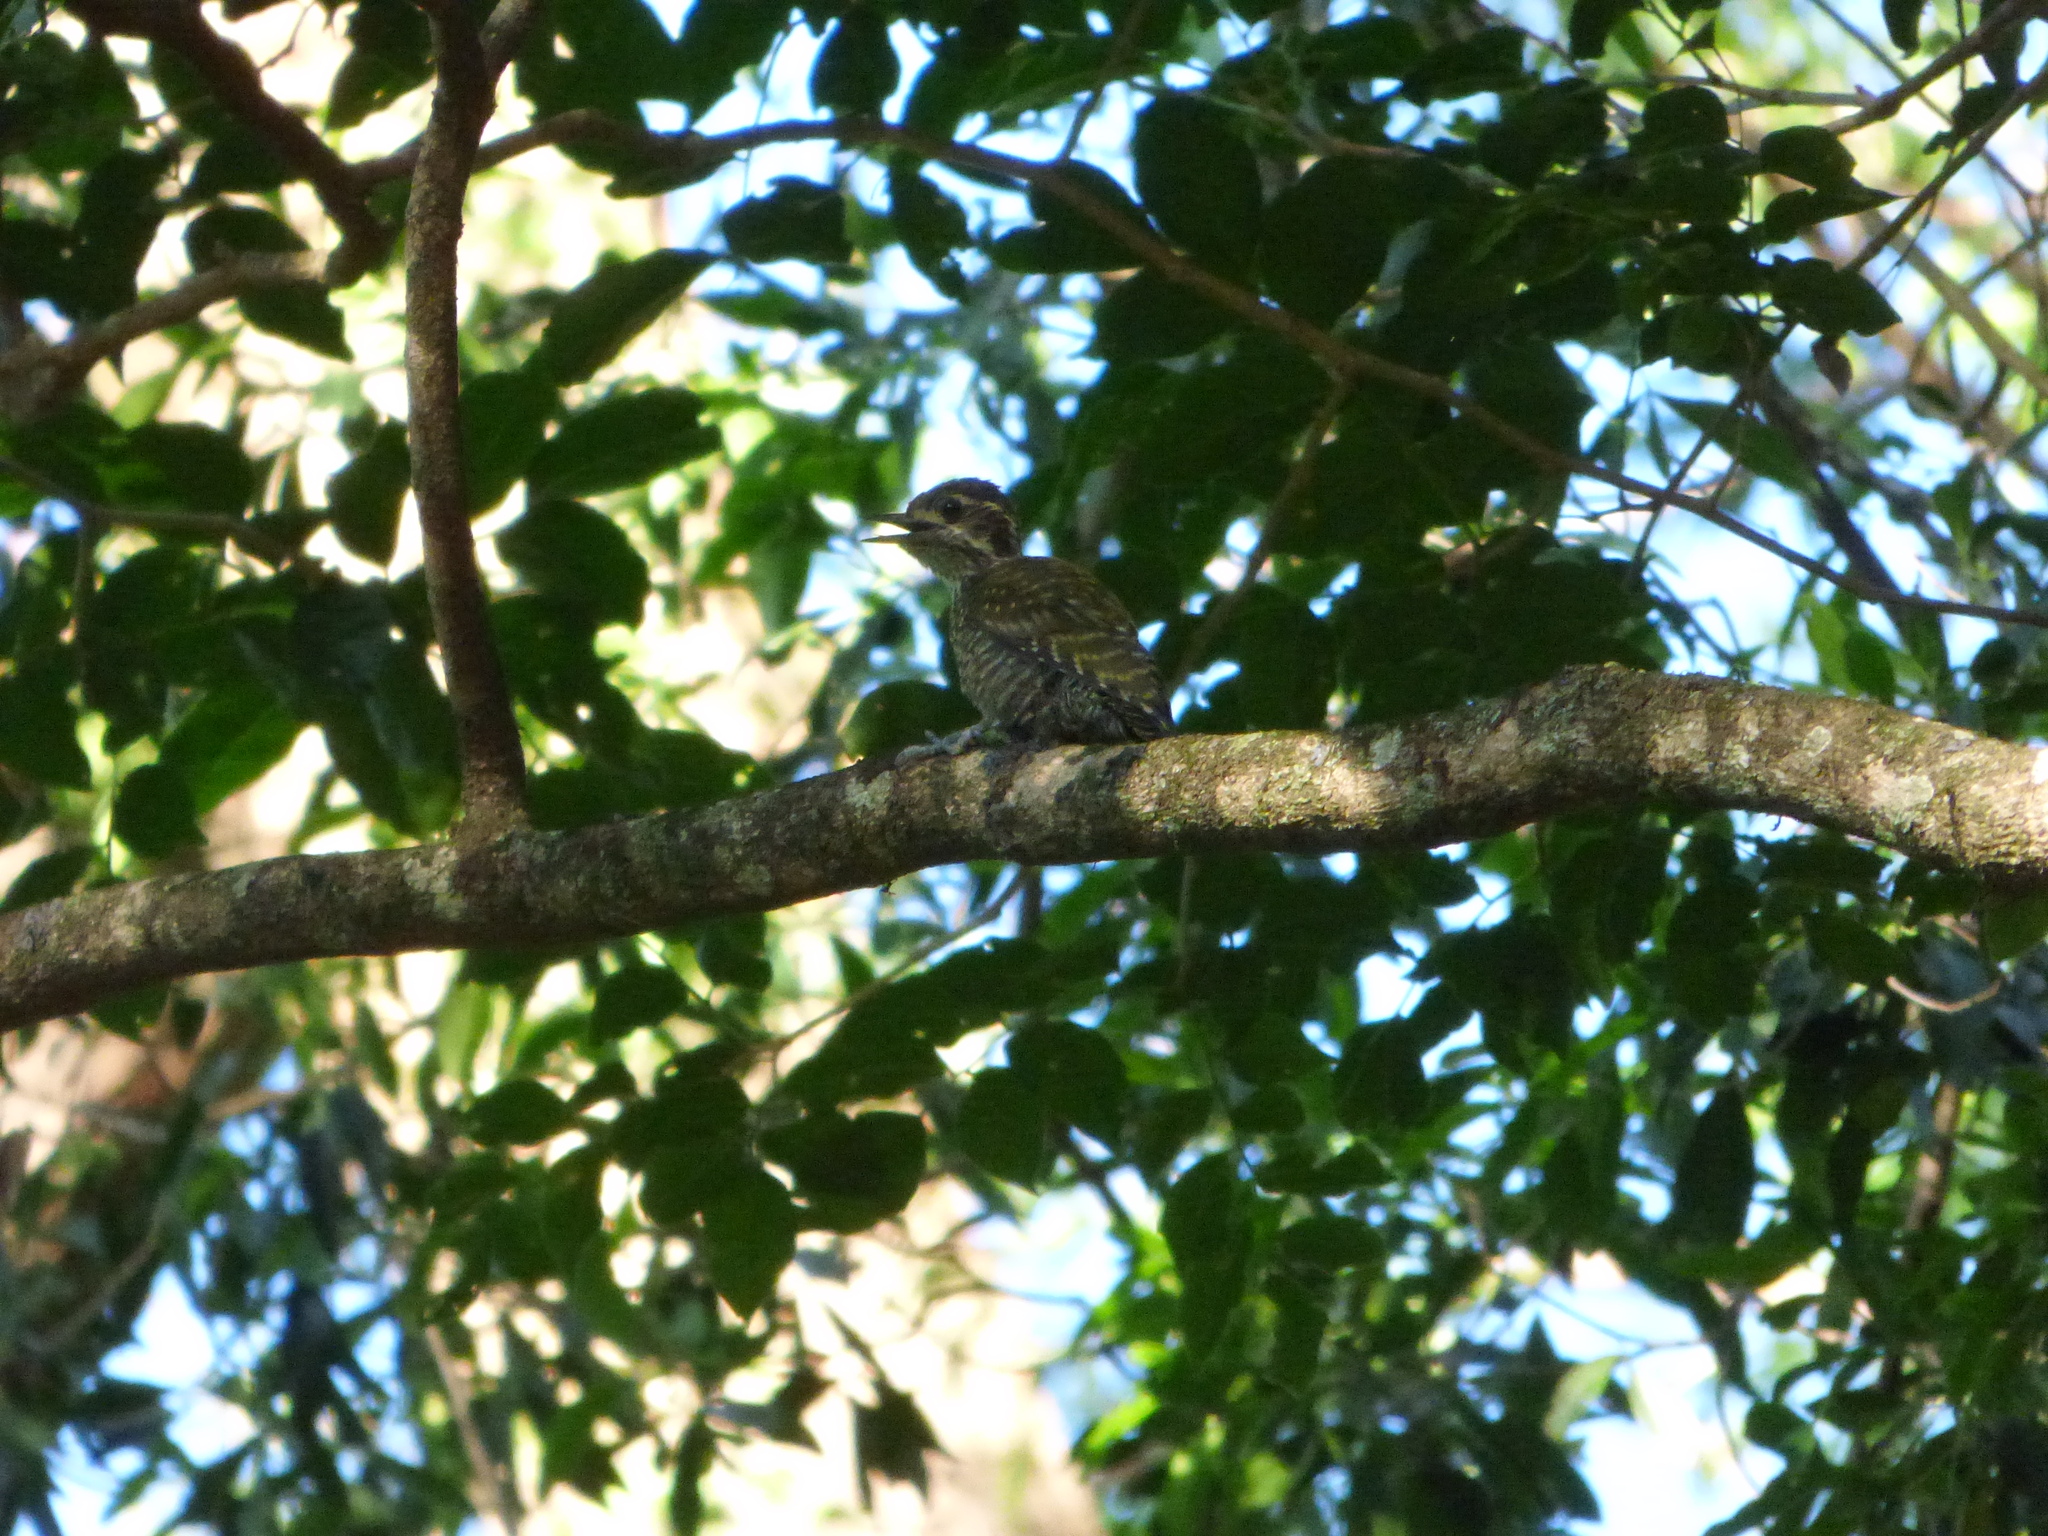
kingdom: Animalia
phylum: Chordata
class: Aves
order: Piciformes
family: Picidae
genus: Veniliornis
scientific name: Veniliornis spilogaster
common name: White-spotted woodpecker
